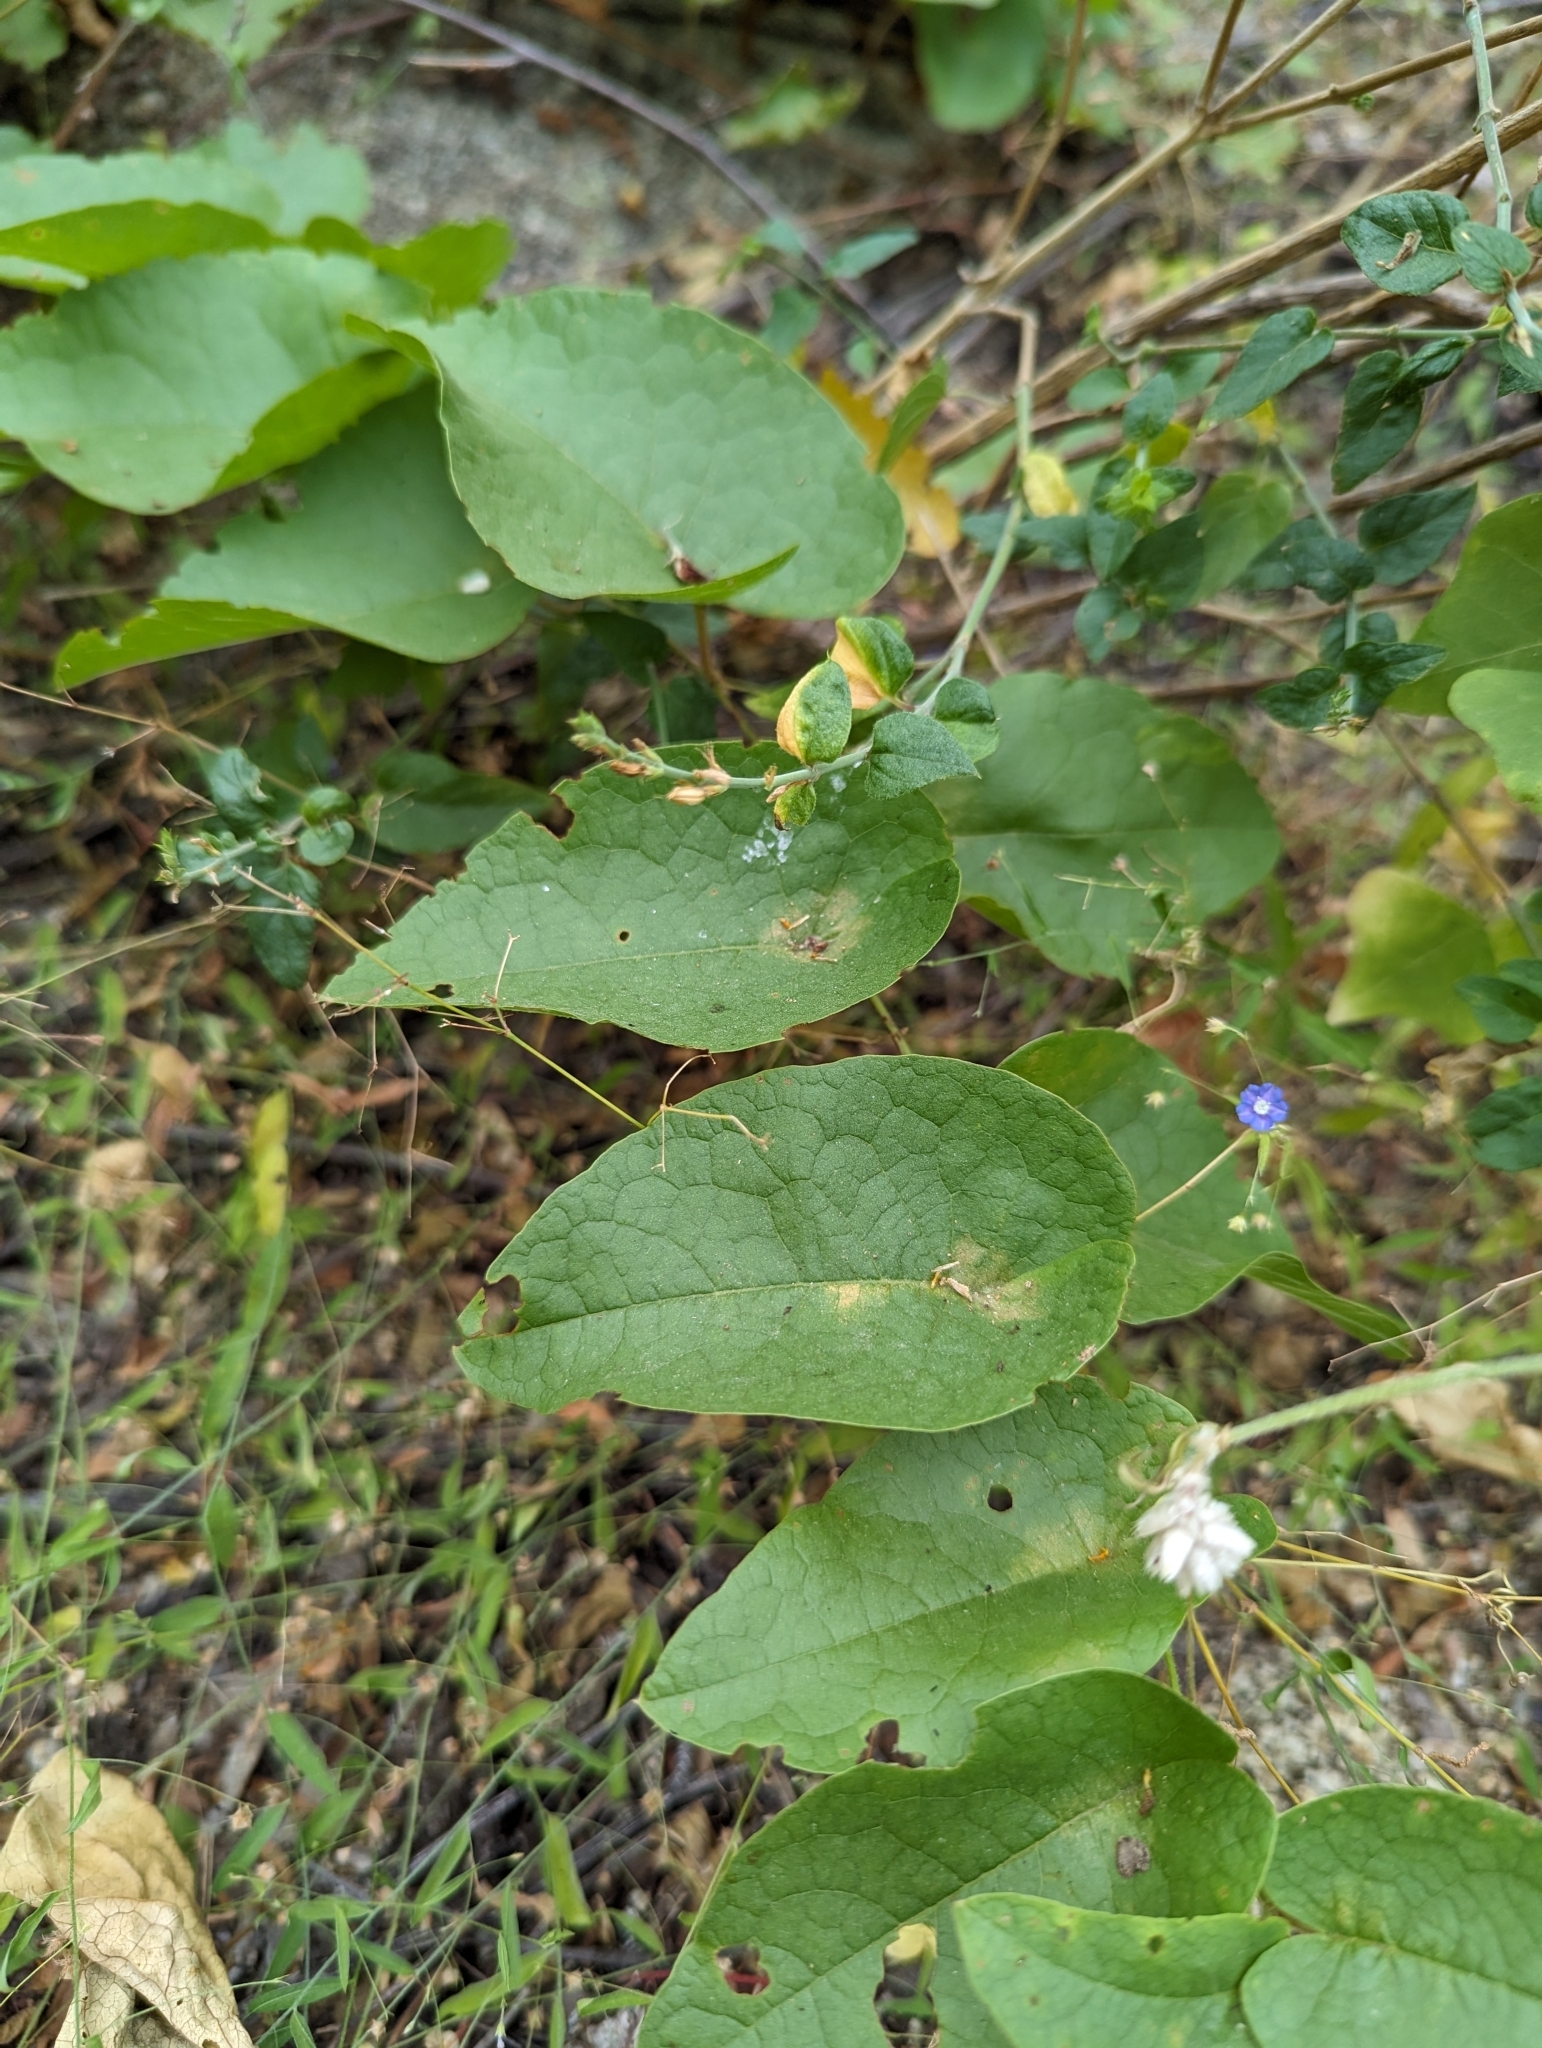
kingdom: Plantae
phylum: Tracheophyta
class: Magnoliopsida
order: Caryophyllales
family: Polygonaceae
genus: Antigonon
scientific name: Antigonon leptopus
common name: Coral vine
